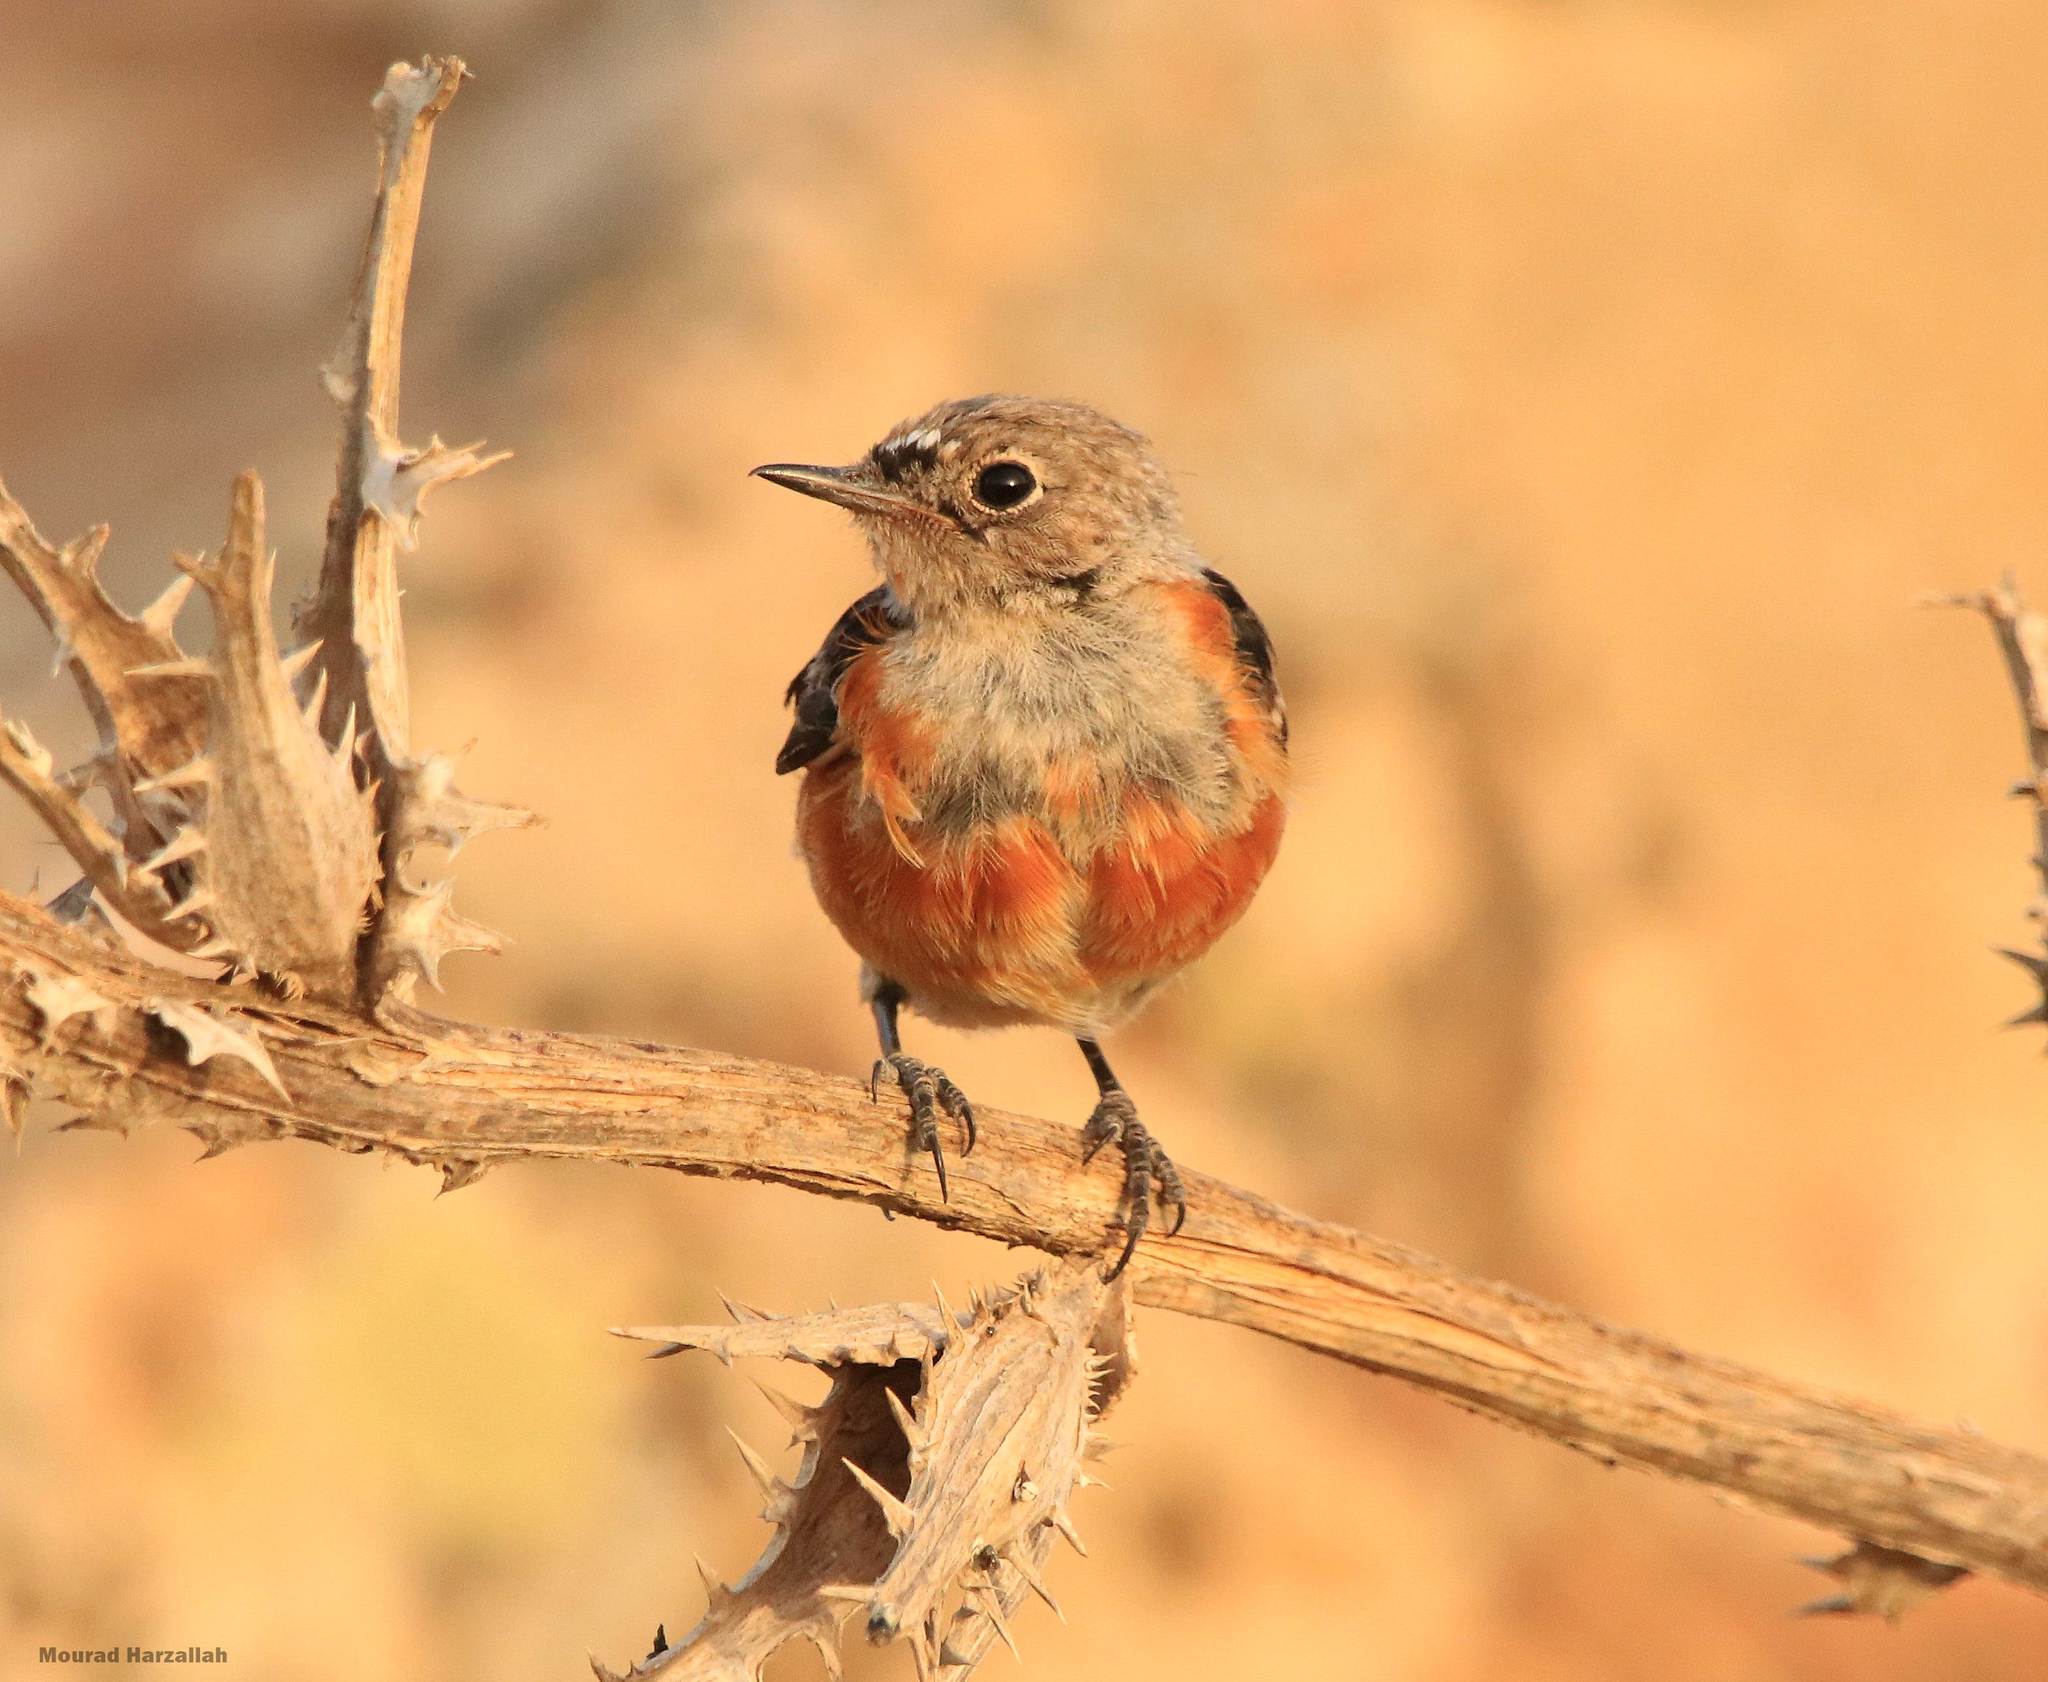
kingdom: Animalia
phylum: Chordata
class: Aves
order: Passeriformes
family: Muscicapidae
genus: Phoenicurus
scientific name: Phoenicurus moussieri
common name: Moussier's redstart
